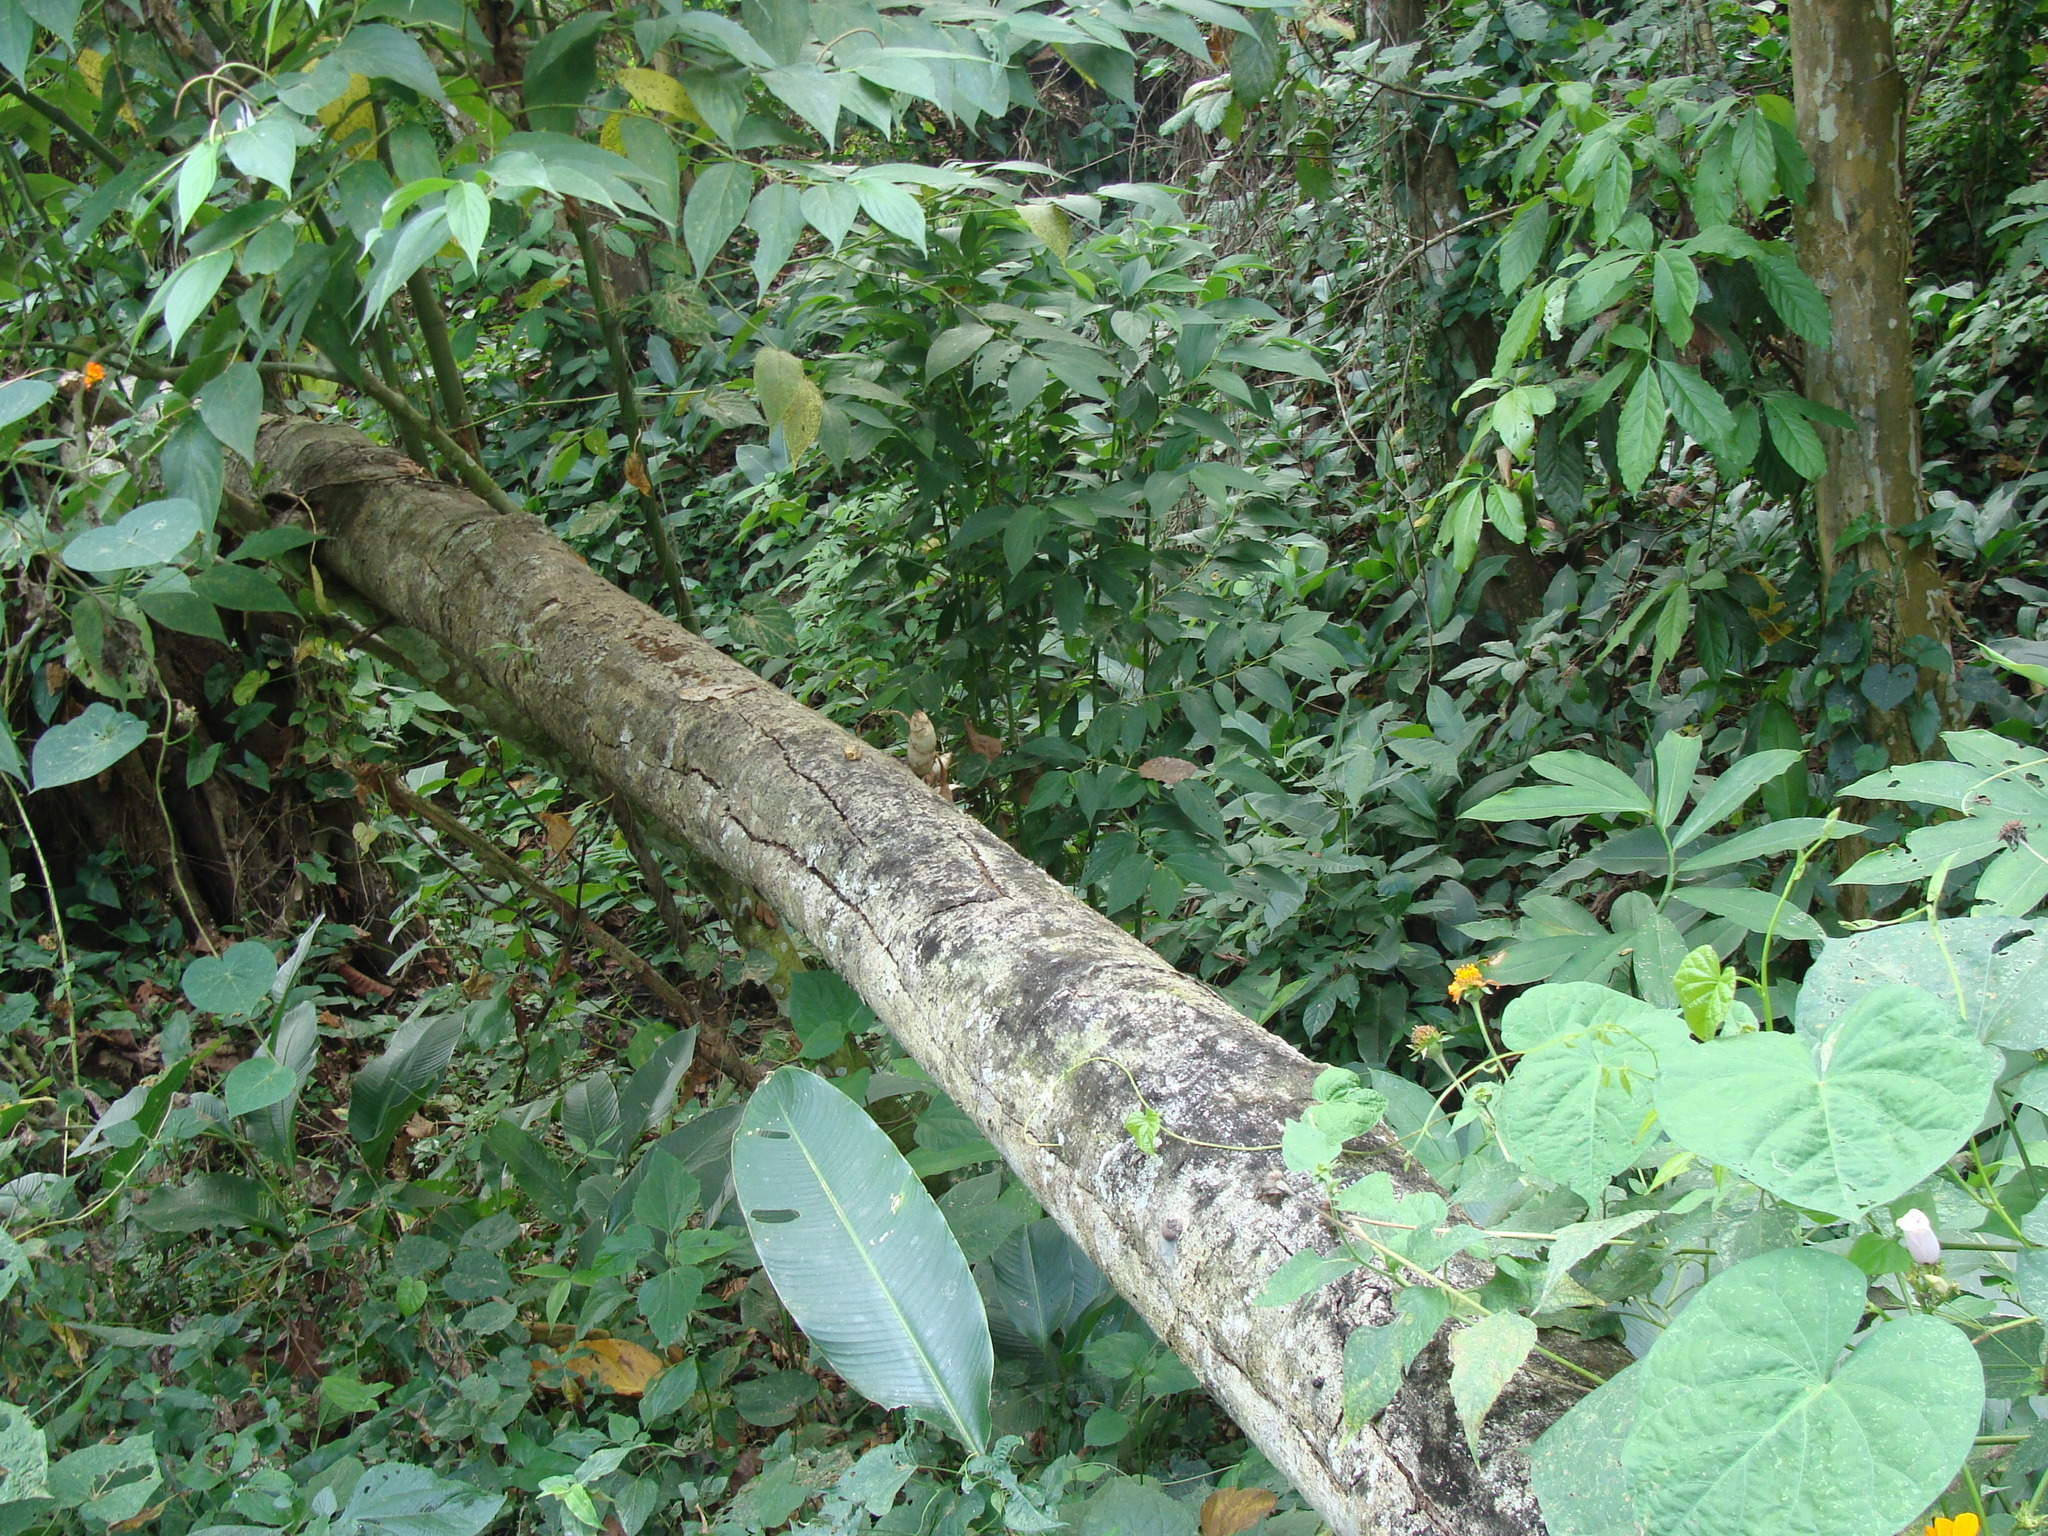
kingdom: Plantae
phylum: Tracheophyta
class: Liliopsida
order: Asparagales
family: Orchidaceae
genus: Mormodes
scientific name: Mormodes lineata
